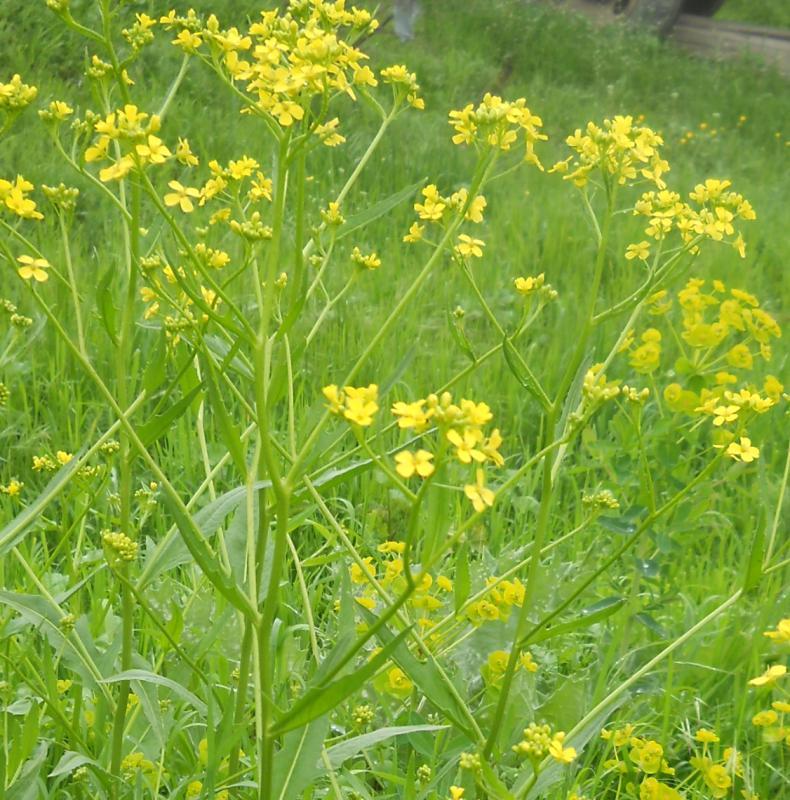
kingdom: Plantae
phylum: Tracheophyta
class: Magnoliopsida
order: Brassicales
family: Brassicaceae
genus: Bunias
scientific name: Bunias orientalis
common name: Warty-cabbage
